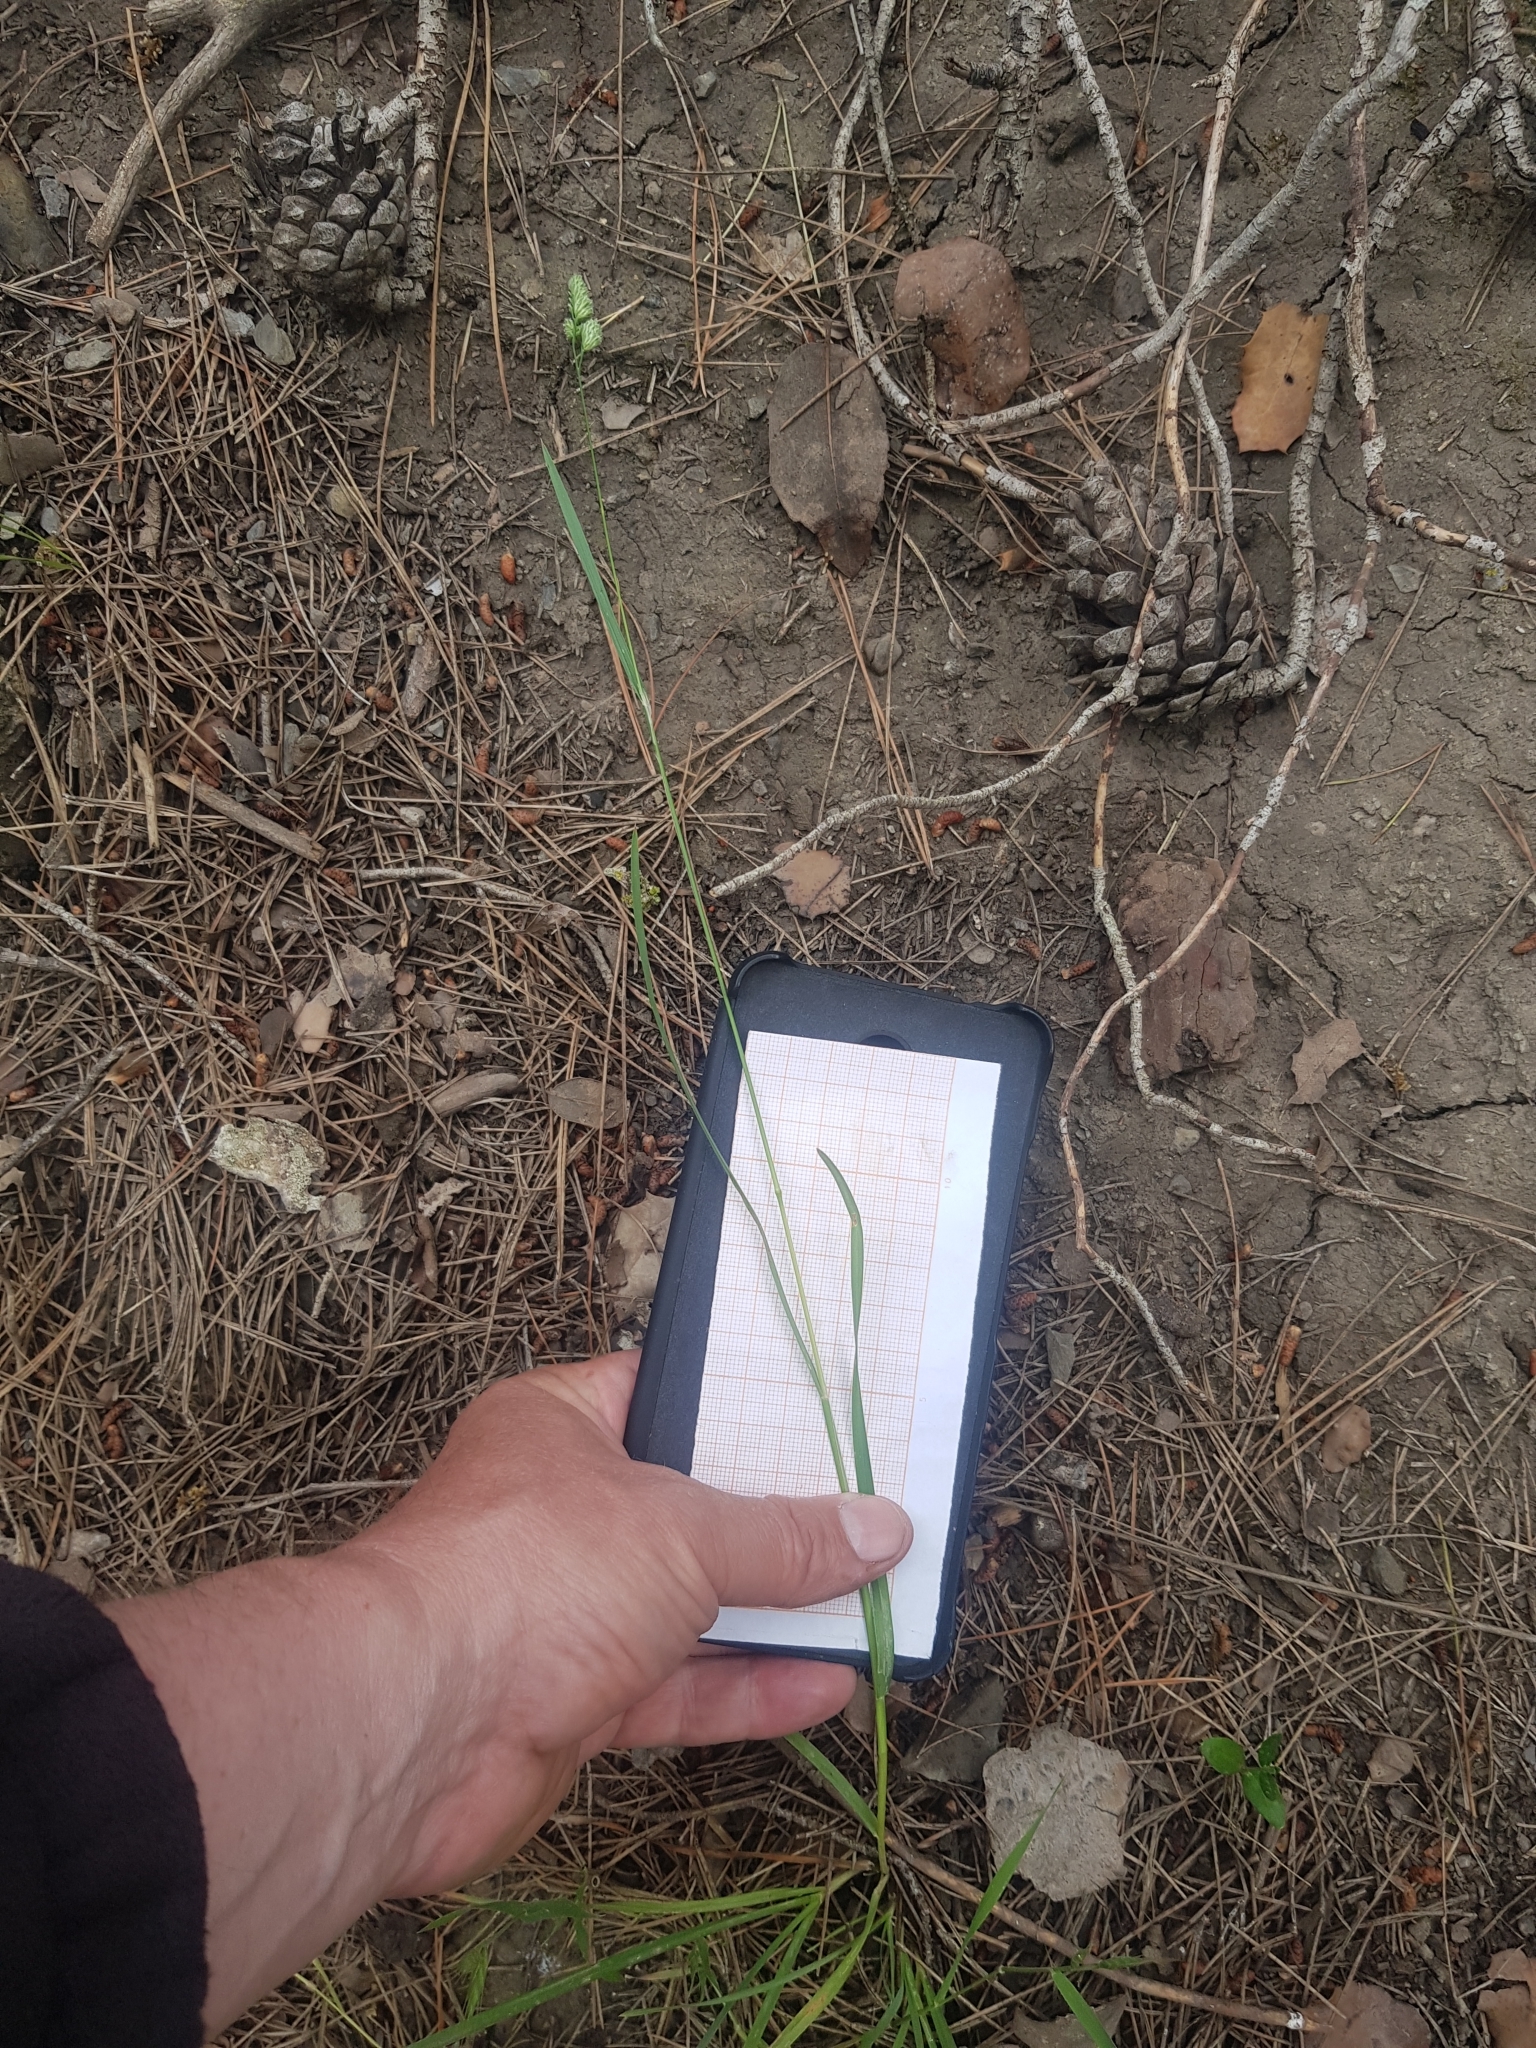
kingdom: Plantae
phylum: Tracheophyta
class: Liliopsida
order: Poales
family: Poaceae
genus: Dactylis
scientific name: Dactylis glomerata
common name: Orchardgrass
